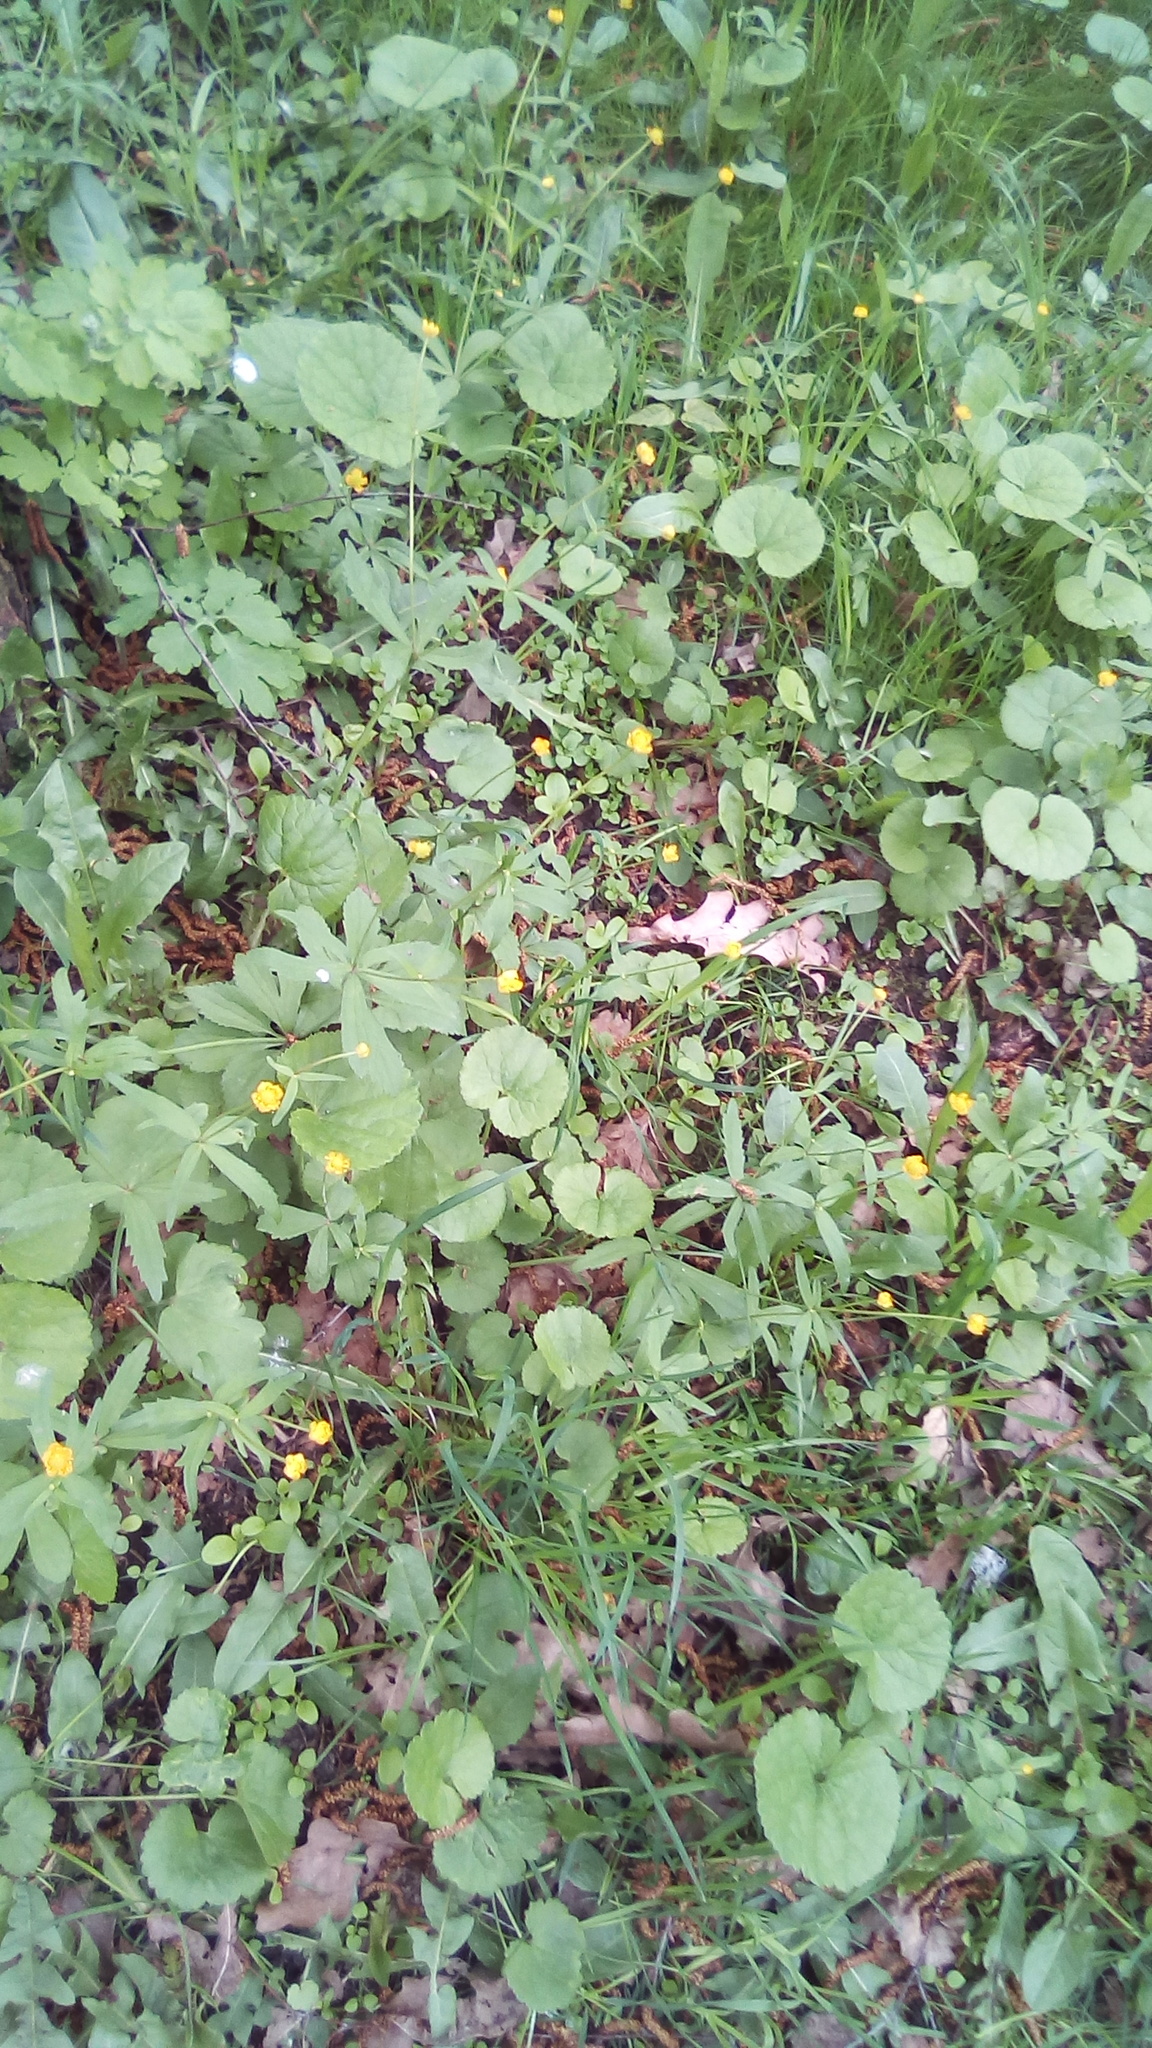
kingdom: Plantae
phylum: Tracheophyta
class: Magnoliopsida
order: Ranunculales
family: Ranunculaceae
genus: Ranunculus
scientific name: Ranunculus cassubicus
